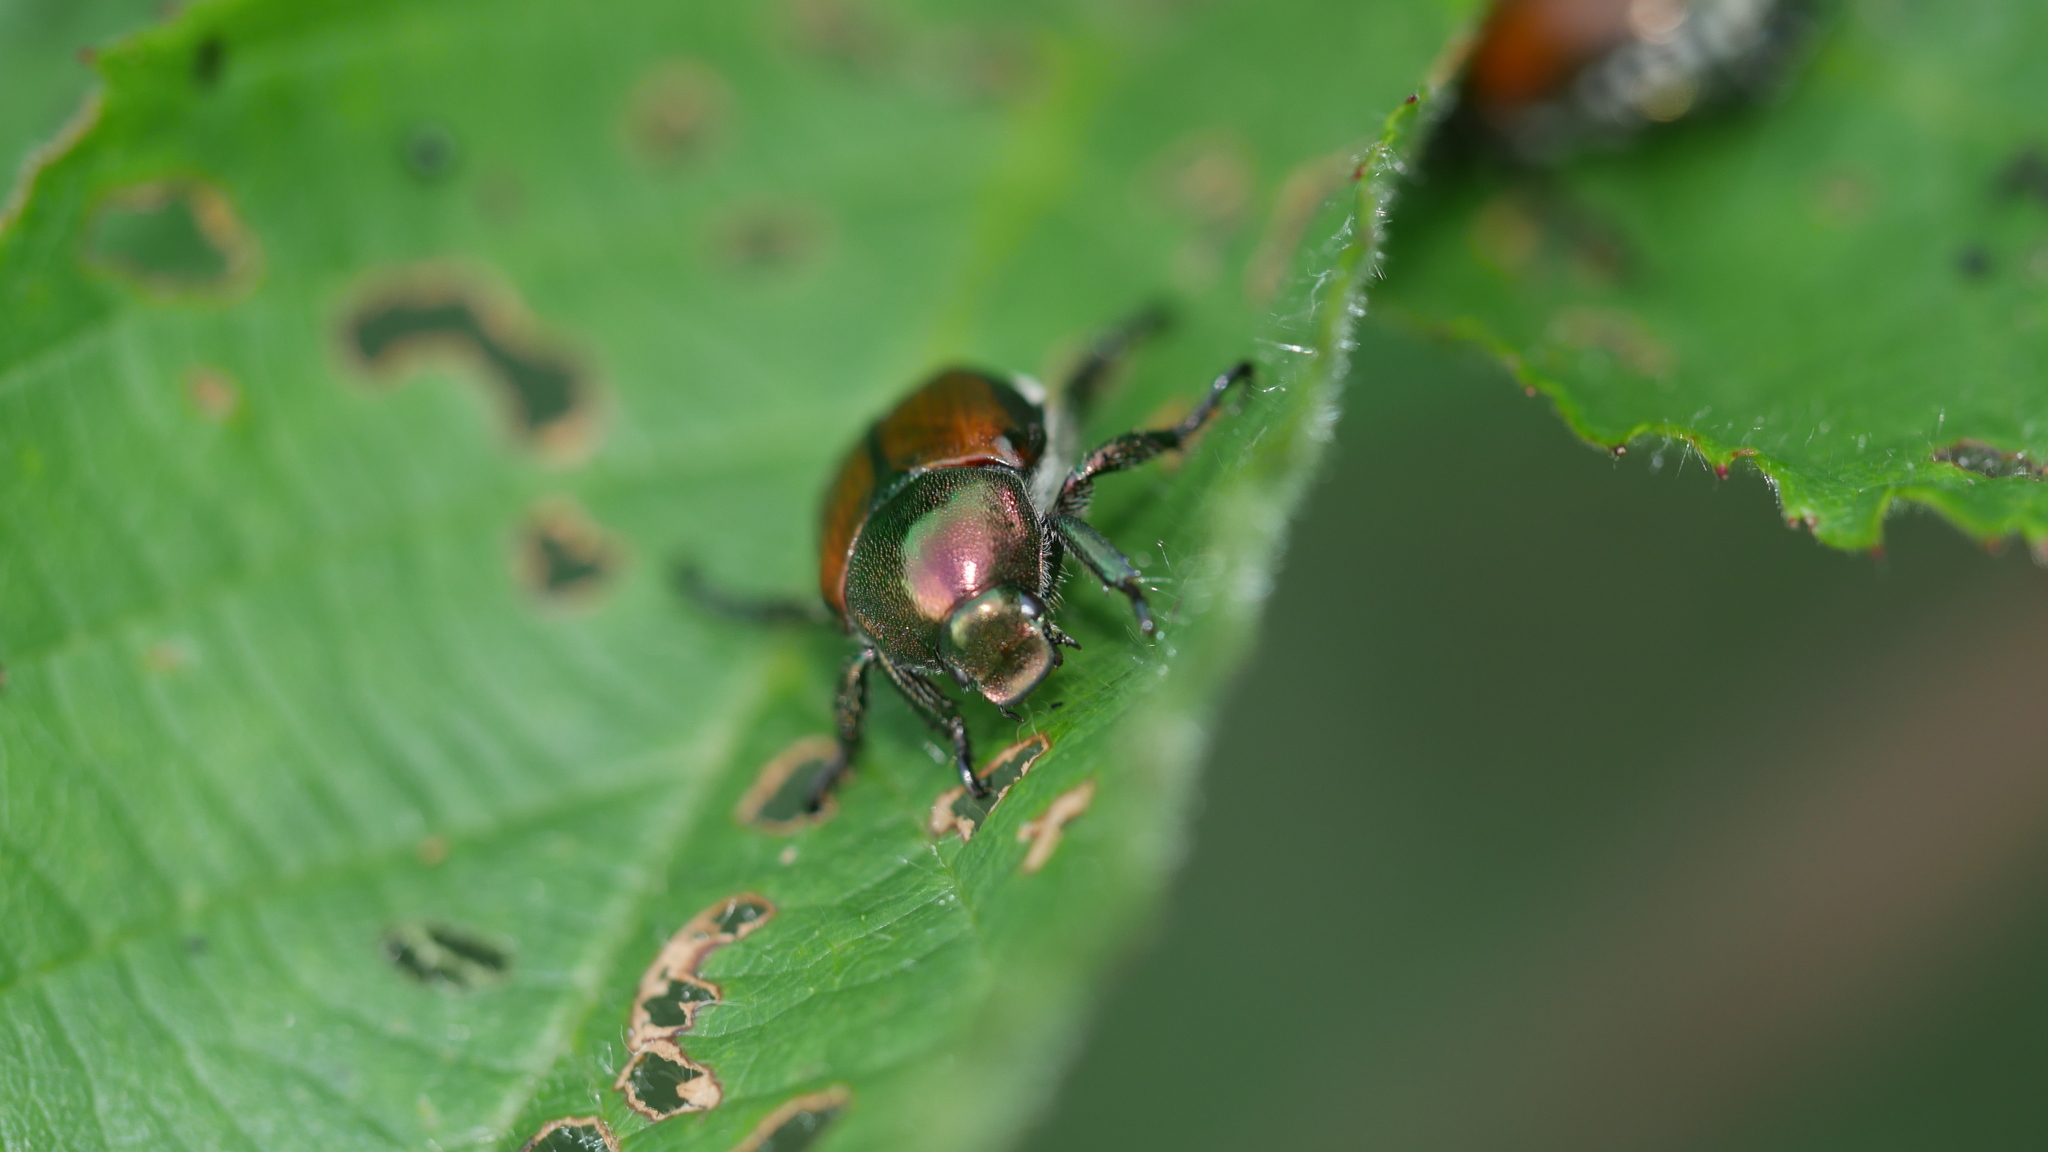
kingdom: Animalia
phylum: Arthropoda
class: Insecta
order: Coleoptera
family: Scarabaeidae
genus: Popillia
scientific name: Popillia japonica
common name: Japanese beetle
